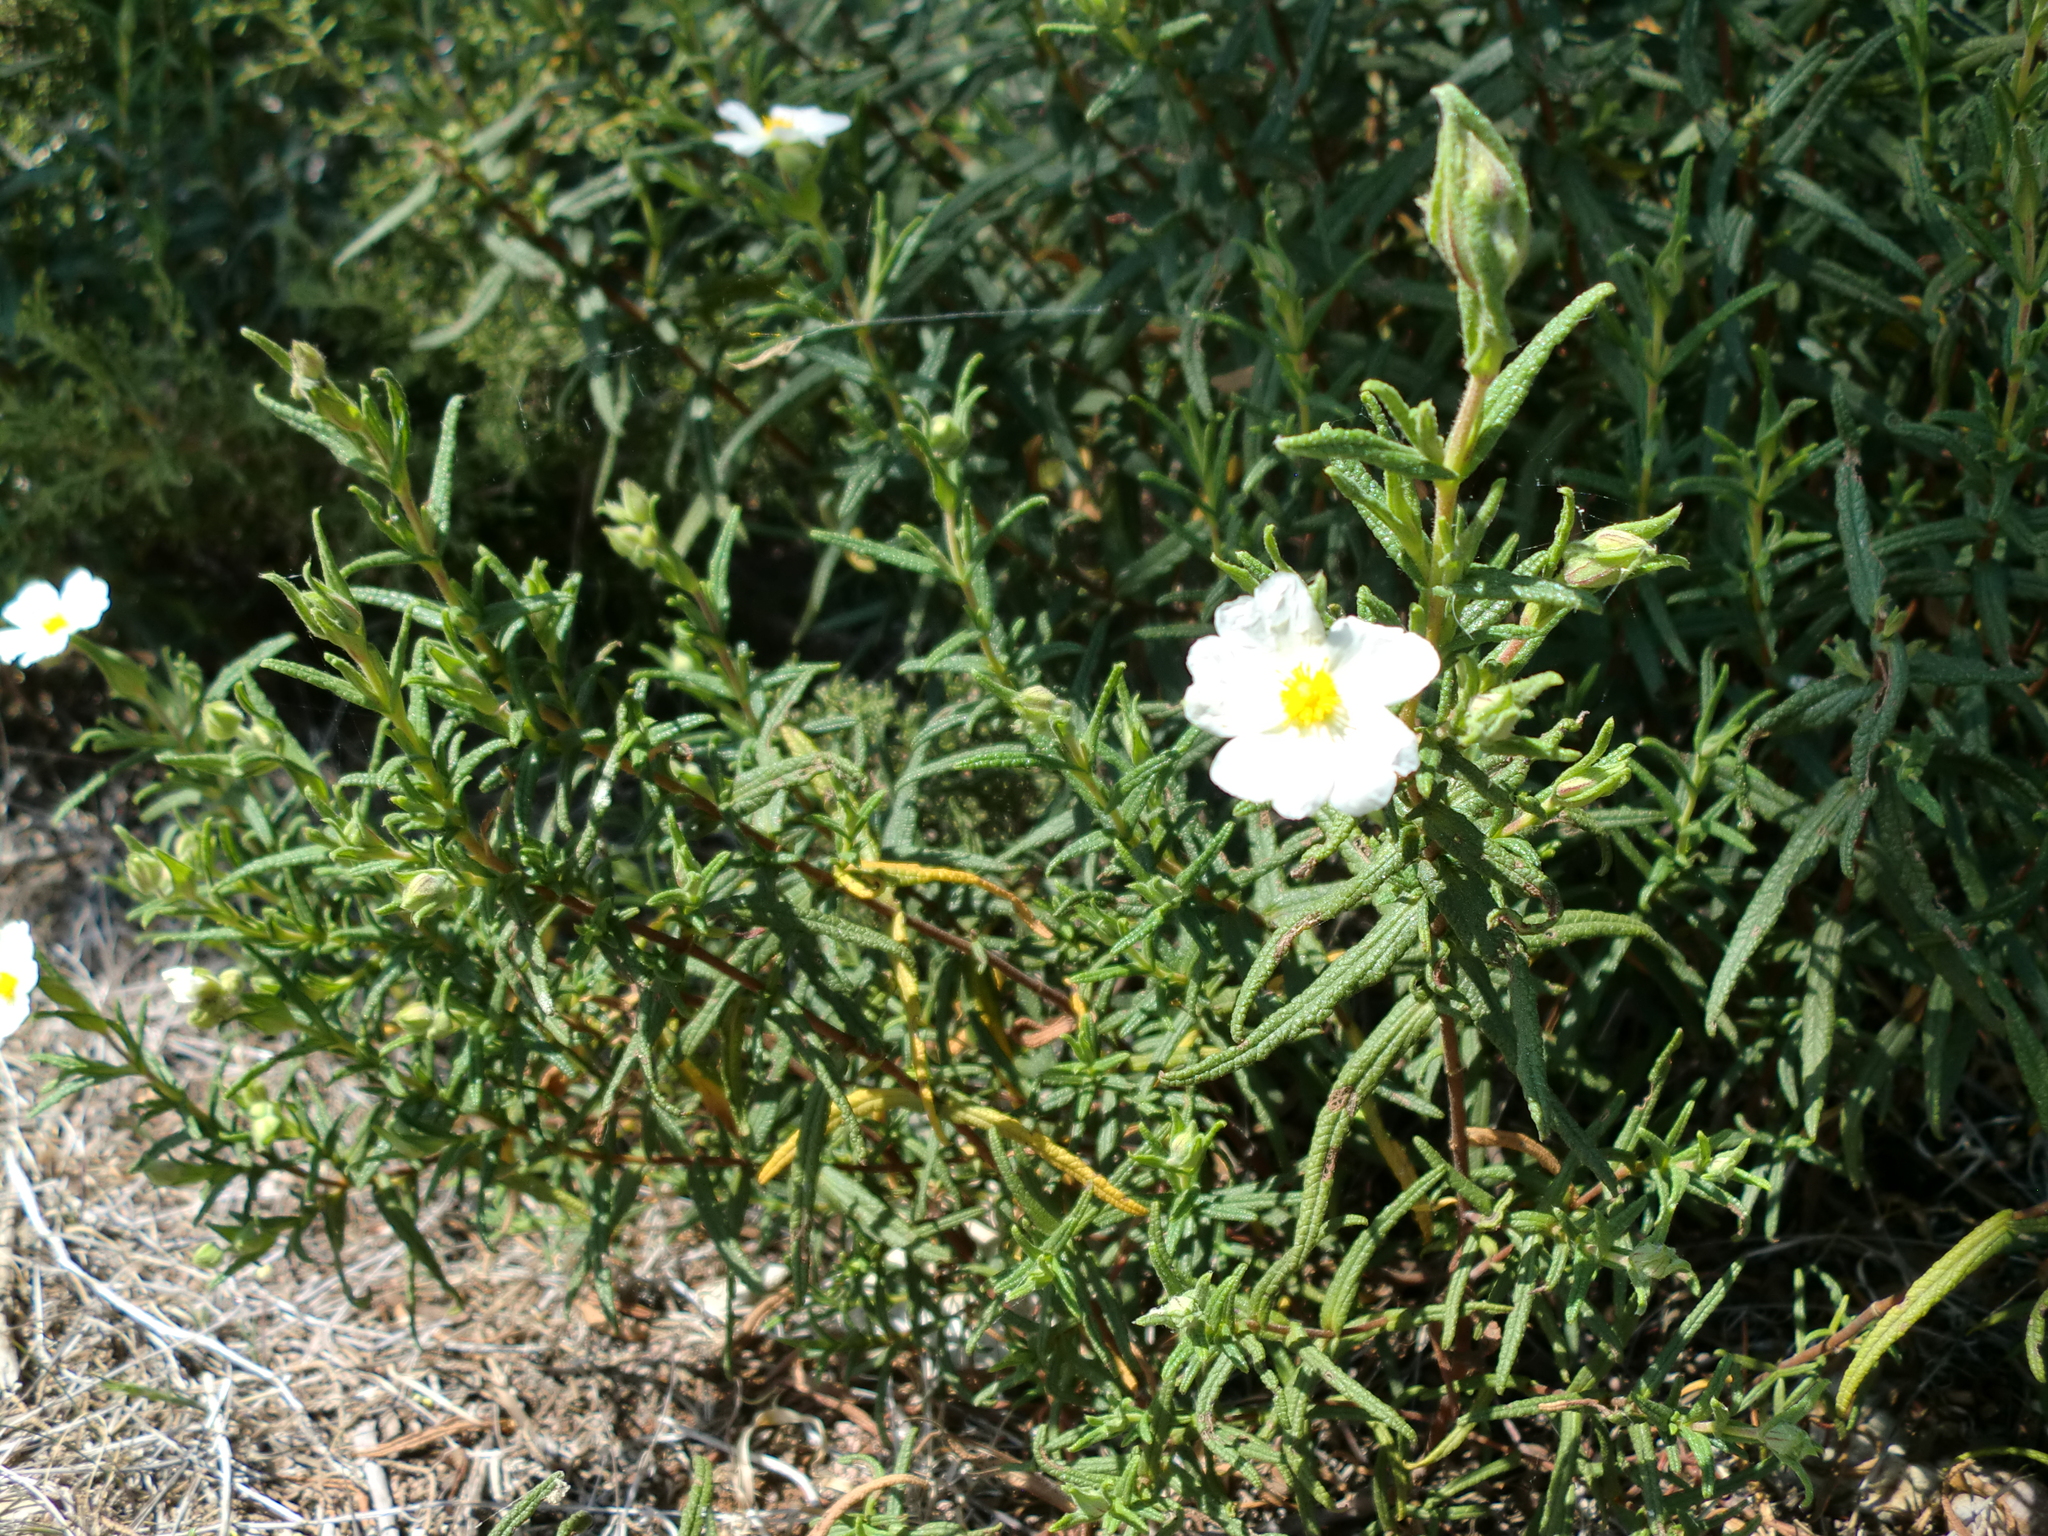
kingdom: Plantae
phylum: Tracheophyta
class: Magnoliopsida
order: Malvales
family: Cistaceae
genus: Cistus
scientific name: Cistus monspeliensis
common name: Montpelier cistus
